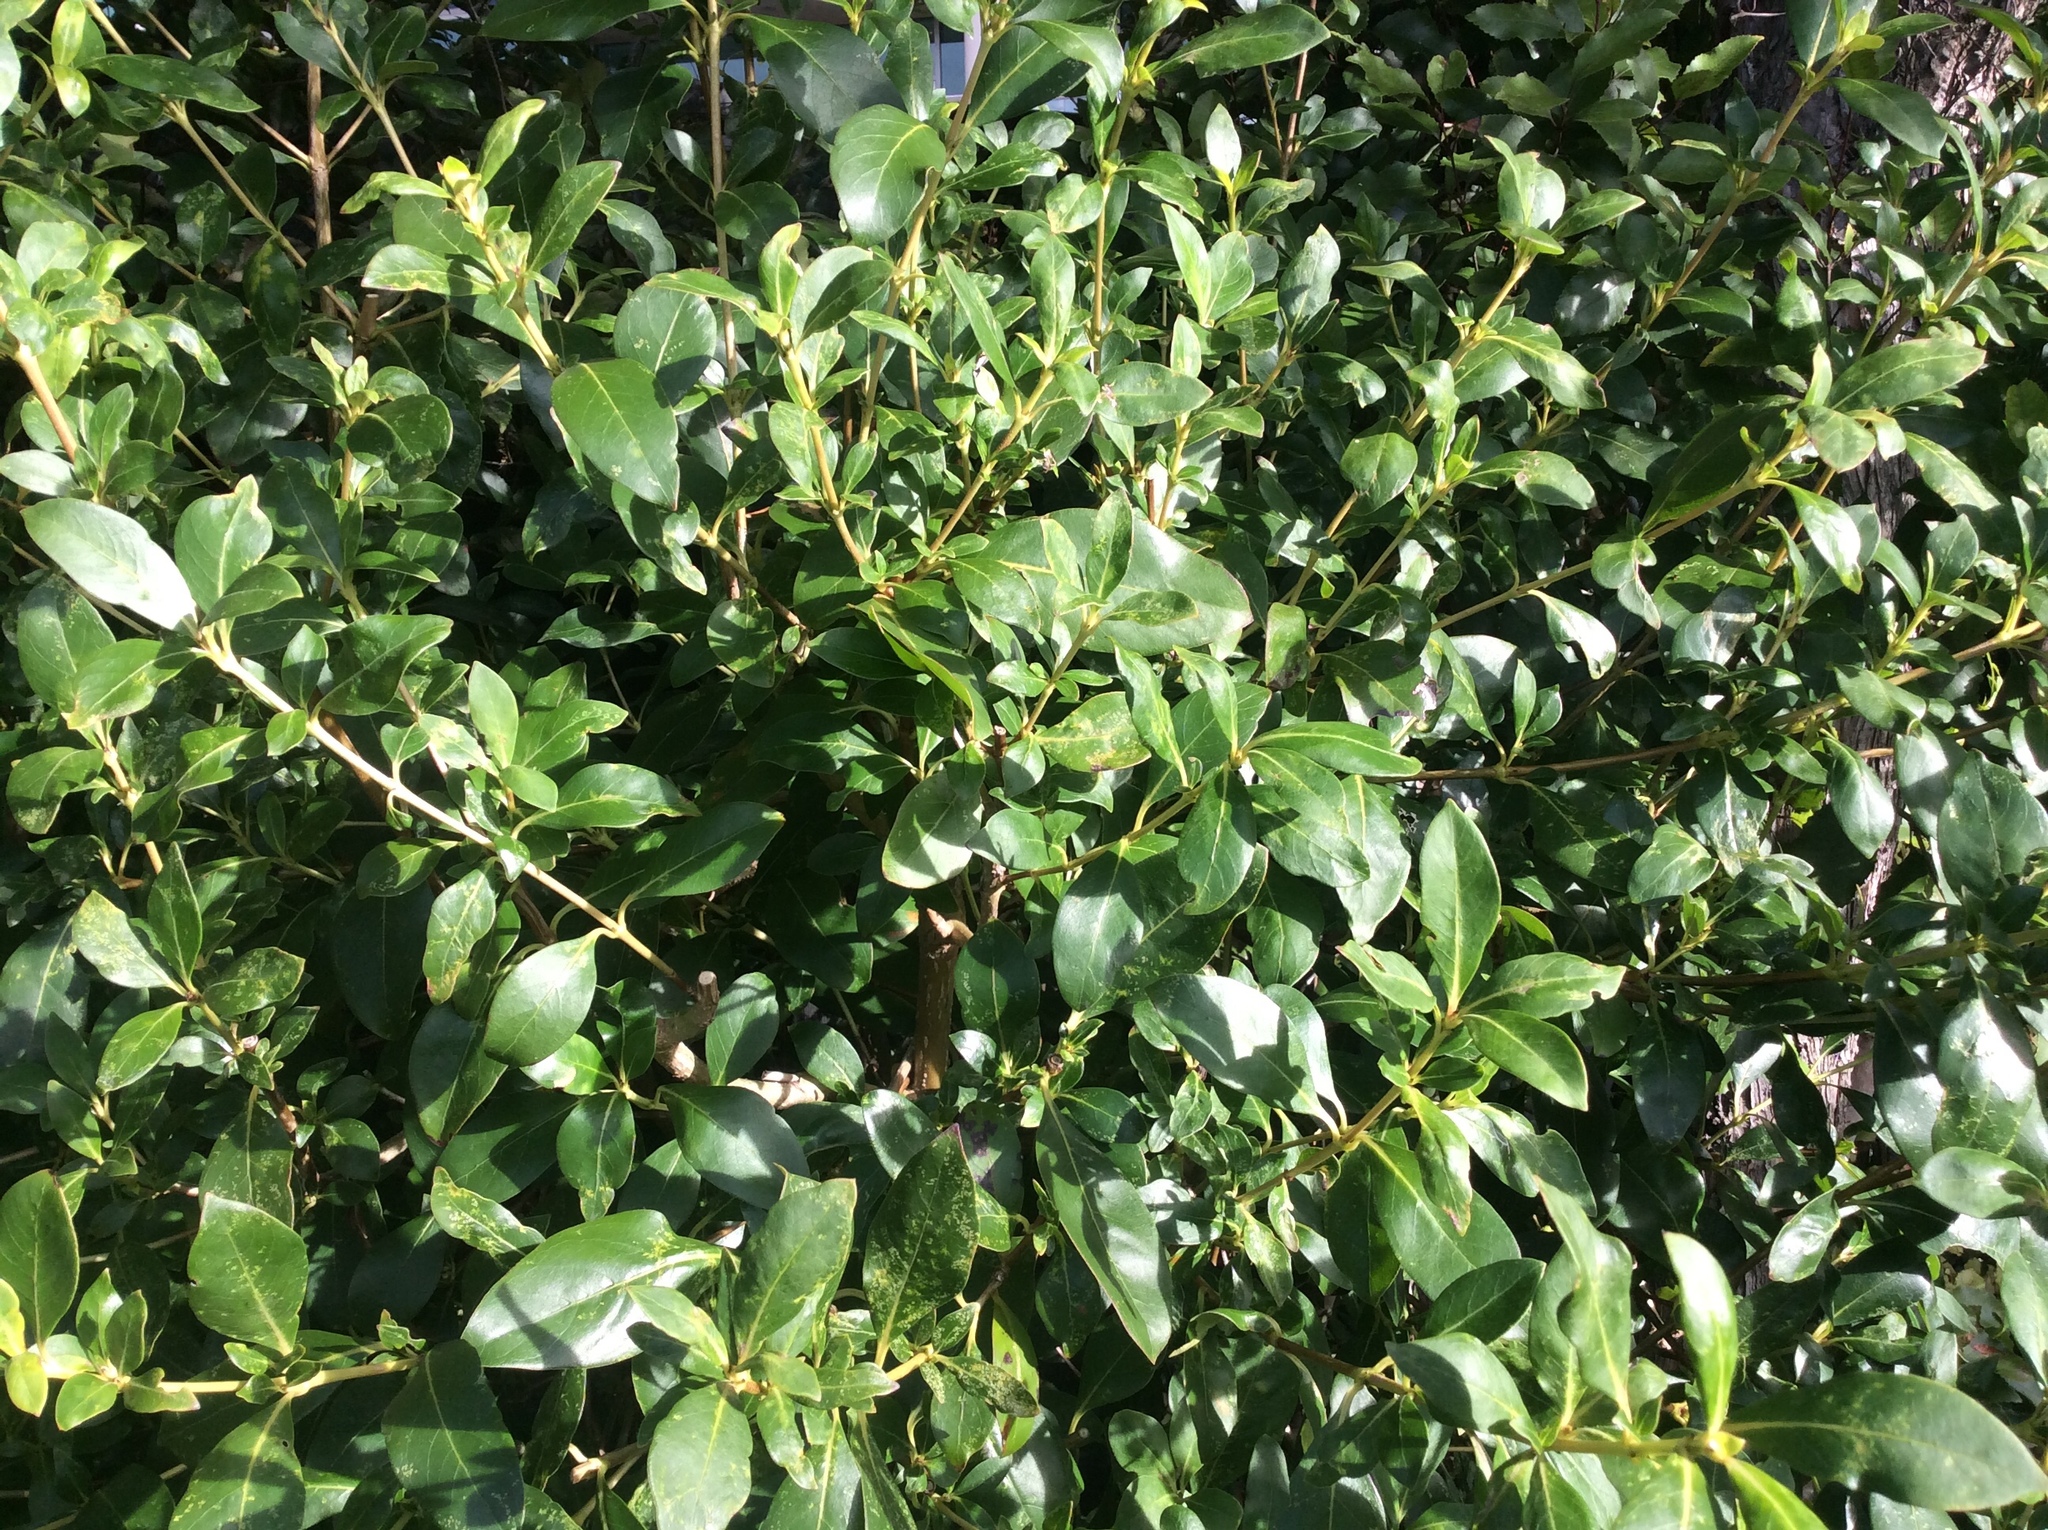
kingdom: Plantae
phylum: Tracheophyta
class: Magnoliopsida
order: Gentianales
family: Rubiaceae
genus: Coprosma
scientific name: Coprosma robusta
